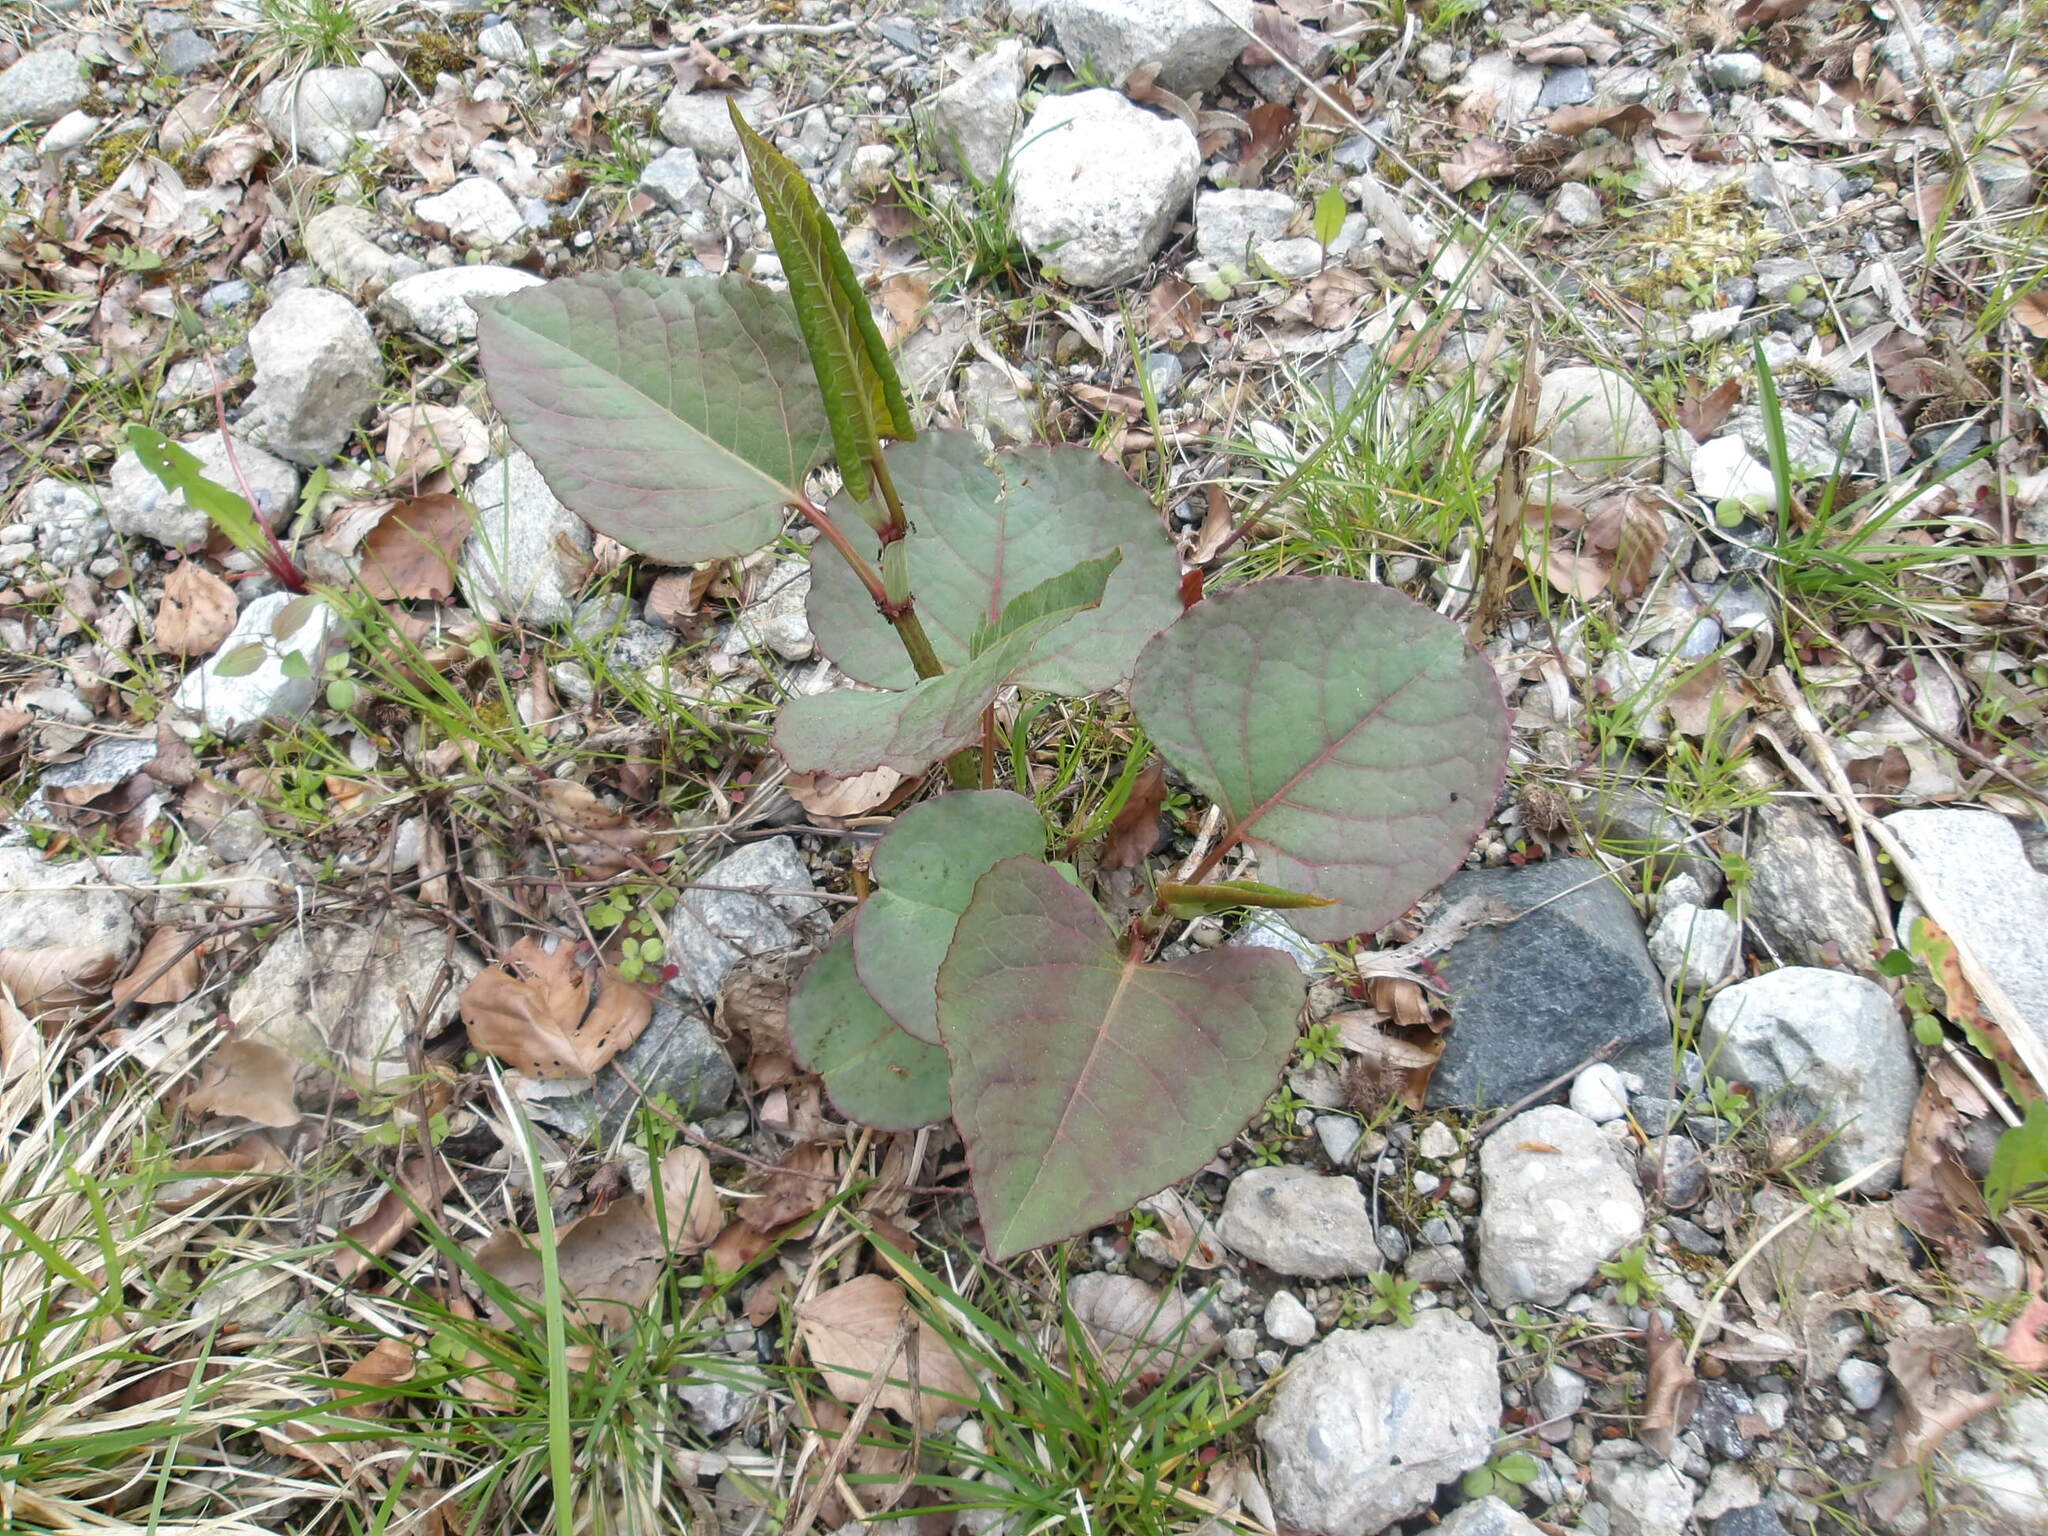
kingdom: Plantae
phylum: Tracheophyta
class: Magnoliopsida
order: Caryophyllales
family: Polygonaceae
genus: Reynoutria
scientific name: Reynoutria japonica
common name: Japanese knotweed
